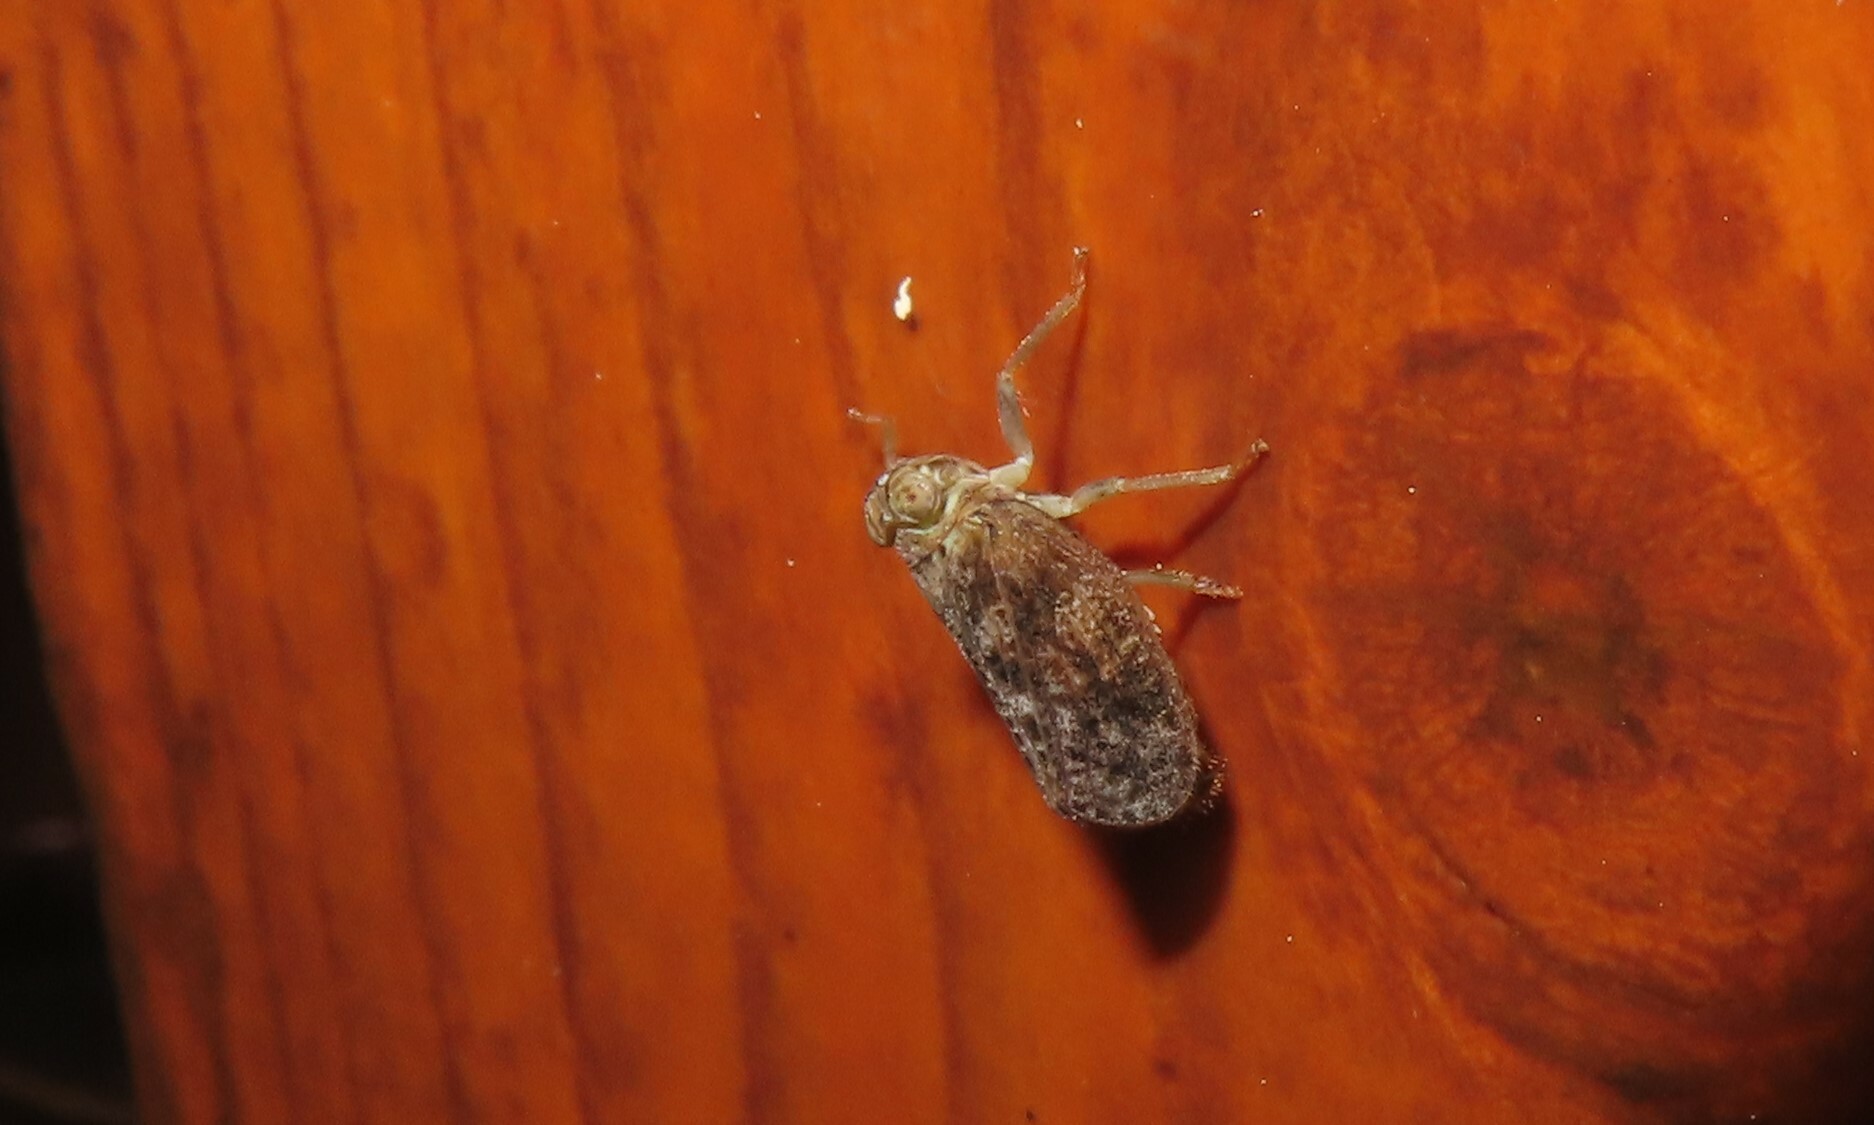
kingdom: Animalia
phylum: Arthropoda
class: Insecta
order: Hemiptera
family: Issidae
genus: Thionia
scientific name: Thionia bullata
